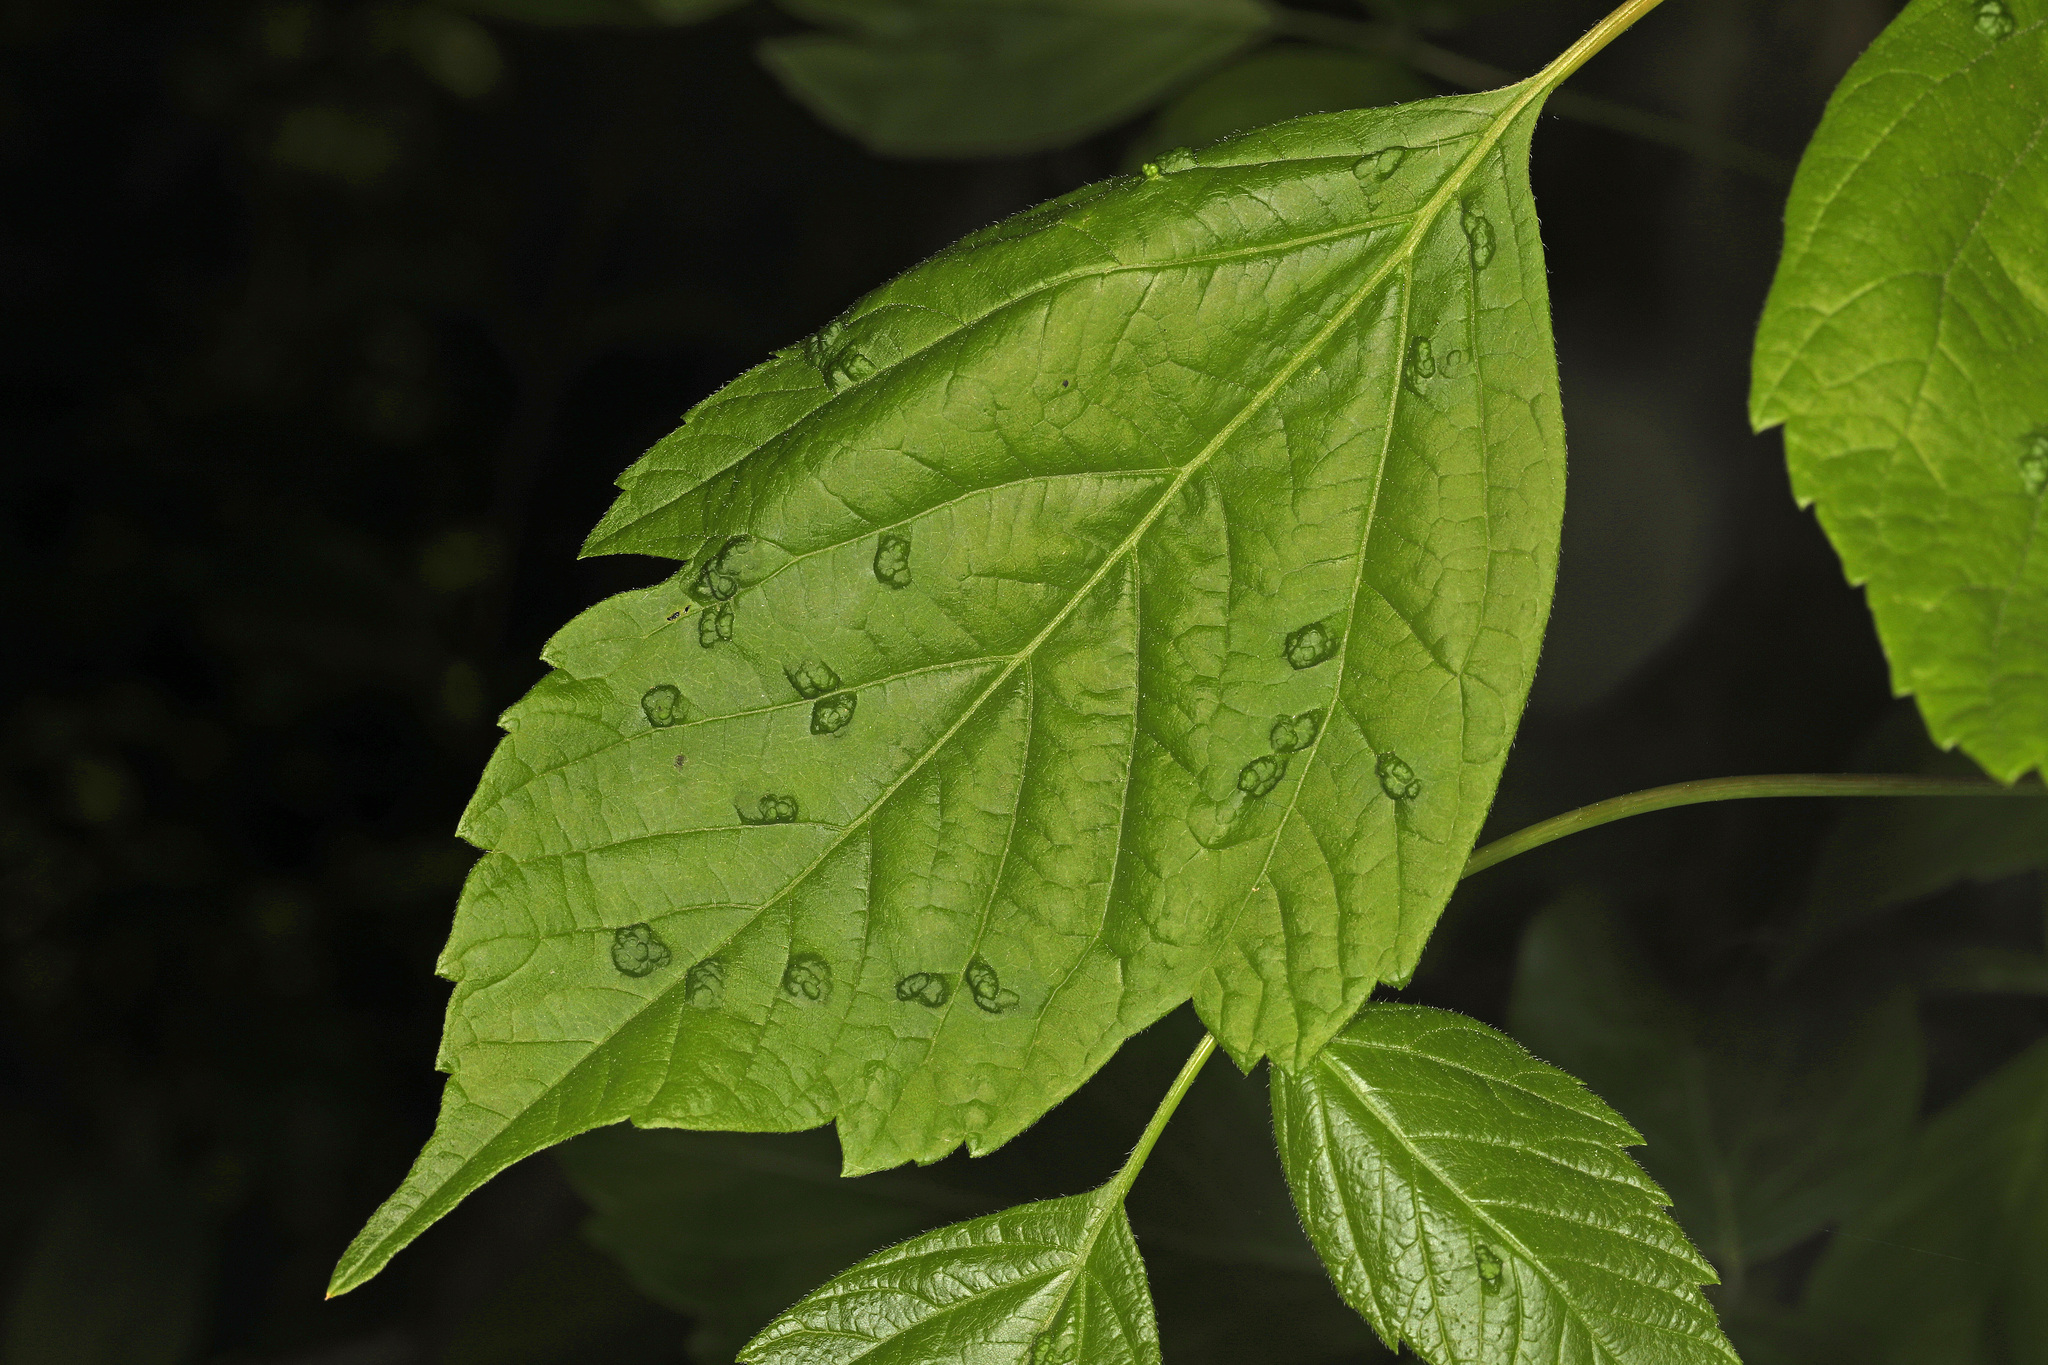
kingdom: Animalia
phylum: Arthropoda
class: Arachnida
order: Trombidiformes
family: Eriophyidae
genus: Aceria
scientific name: Aceria
